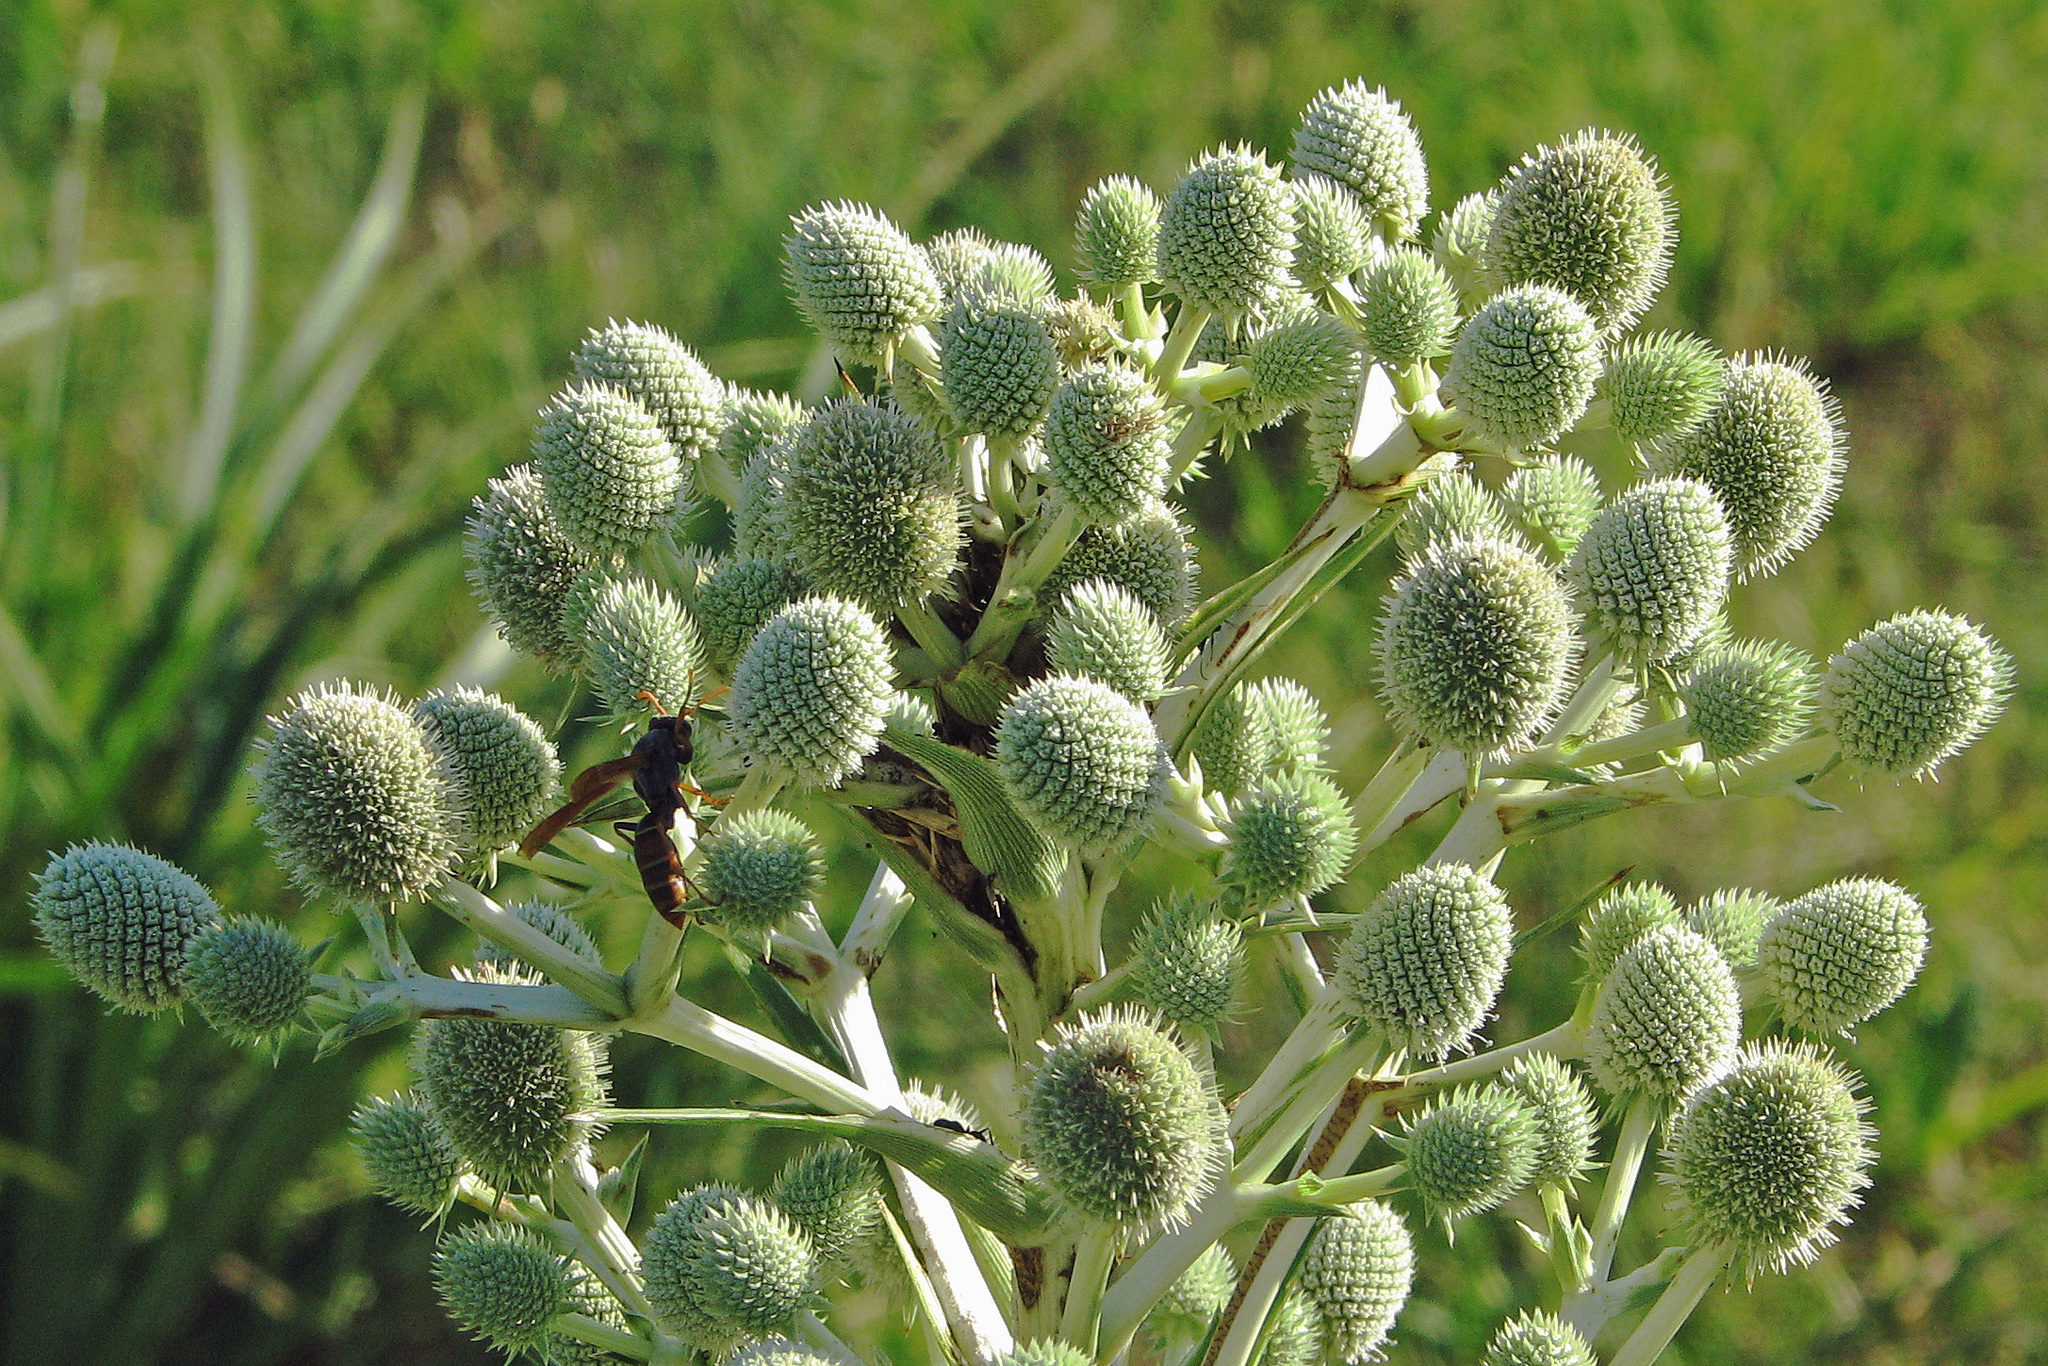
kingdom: Plantae
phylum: Tracheophyta
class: Magnoliopsida
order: Apiales
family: Apiaceae
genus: Eryngium
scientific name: Eryngium horridum
